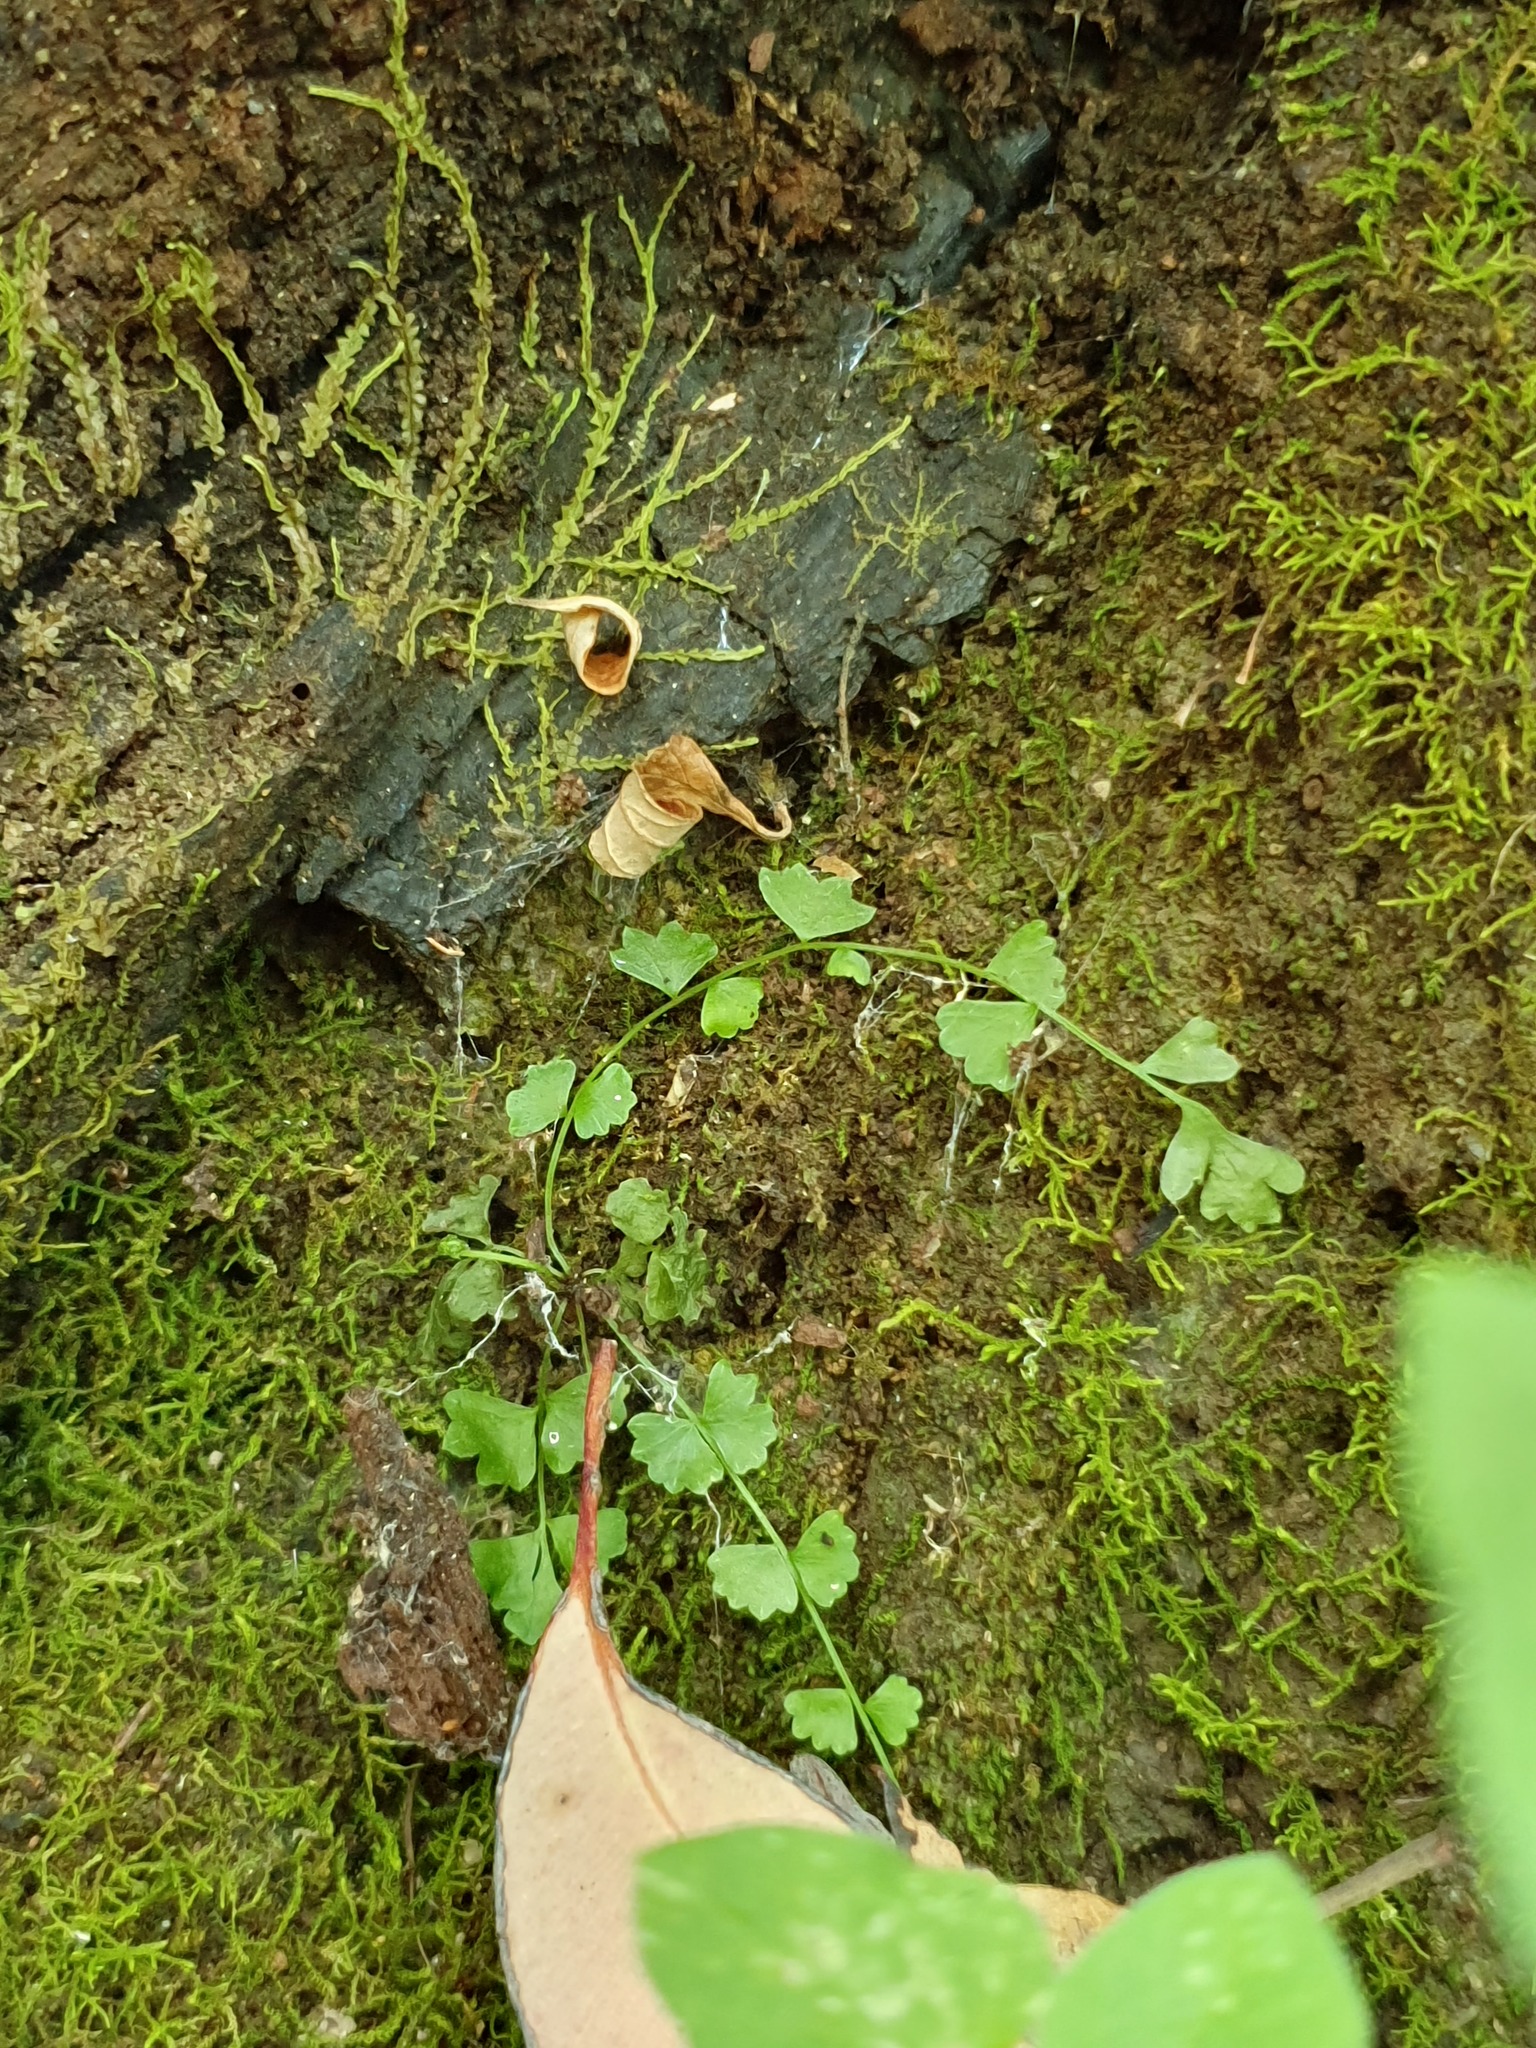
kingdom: Plantae
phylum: Tracheophyta
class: Polypodiopsida
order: Polypodiales
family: Aspleniaceae
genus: Asplenium
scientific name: Asplenium flabellifolium
